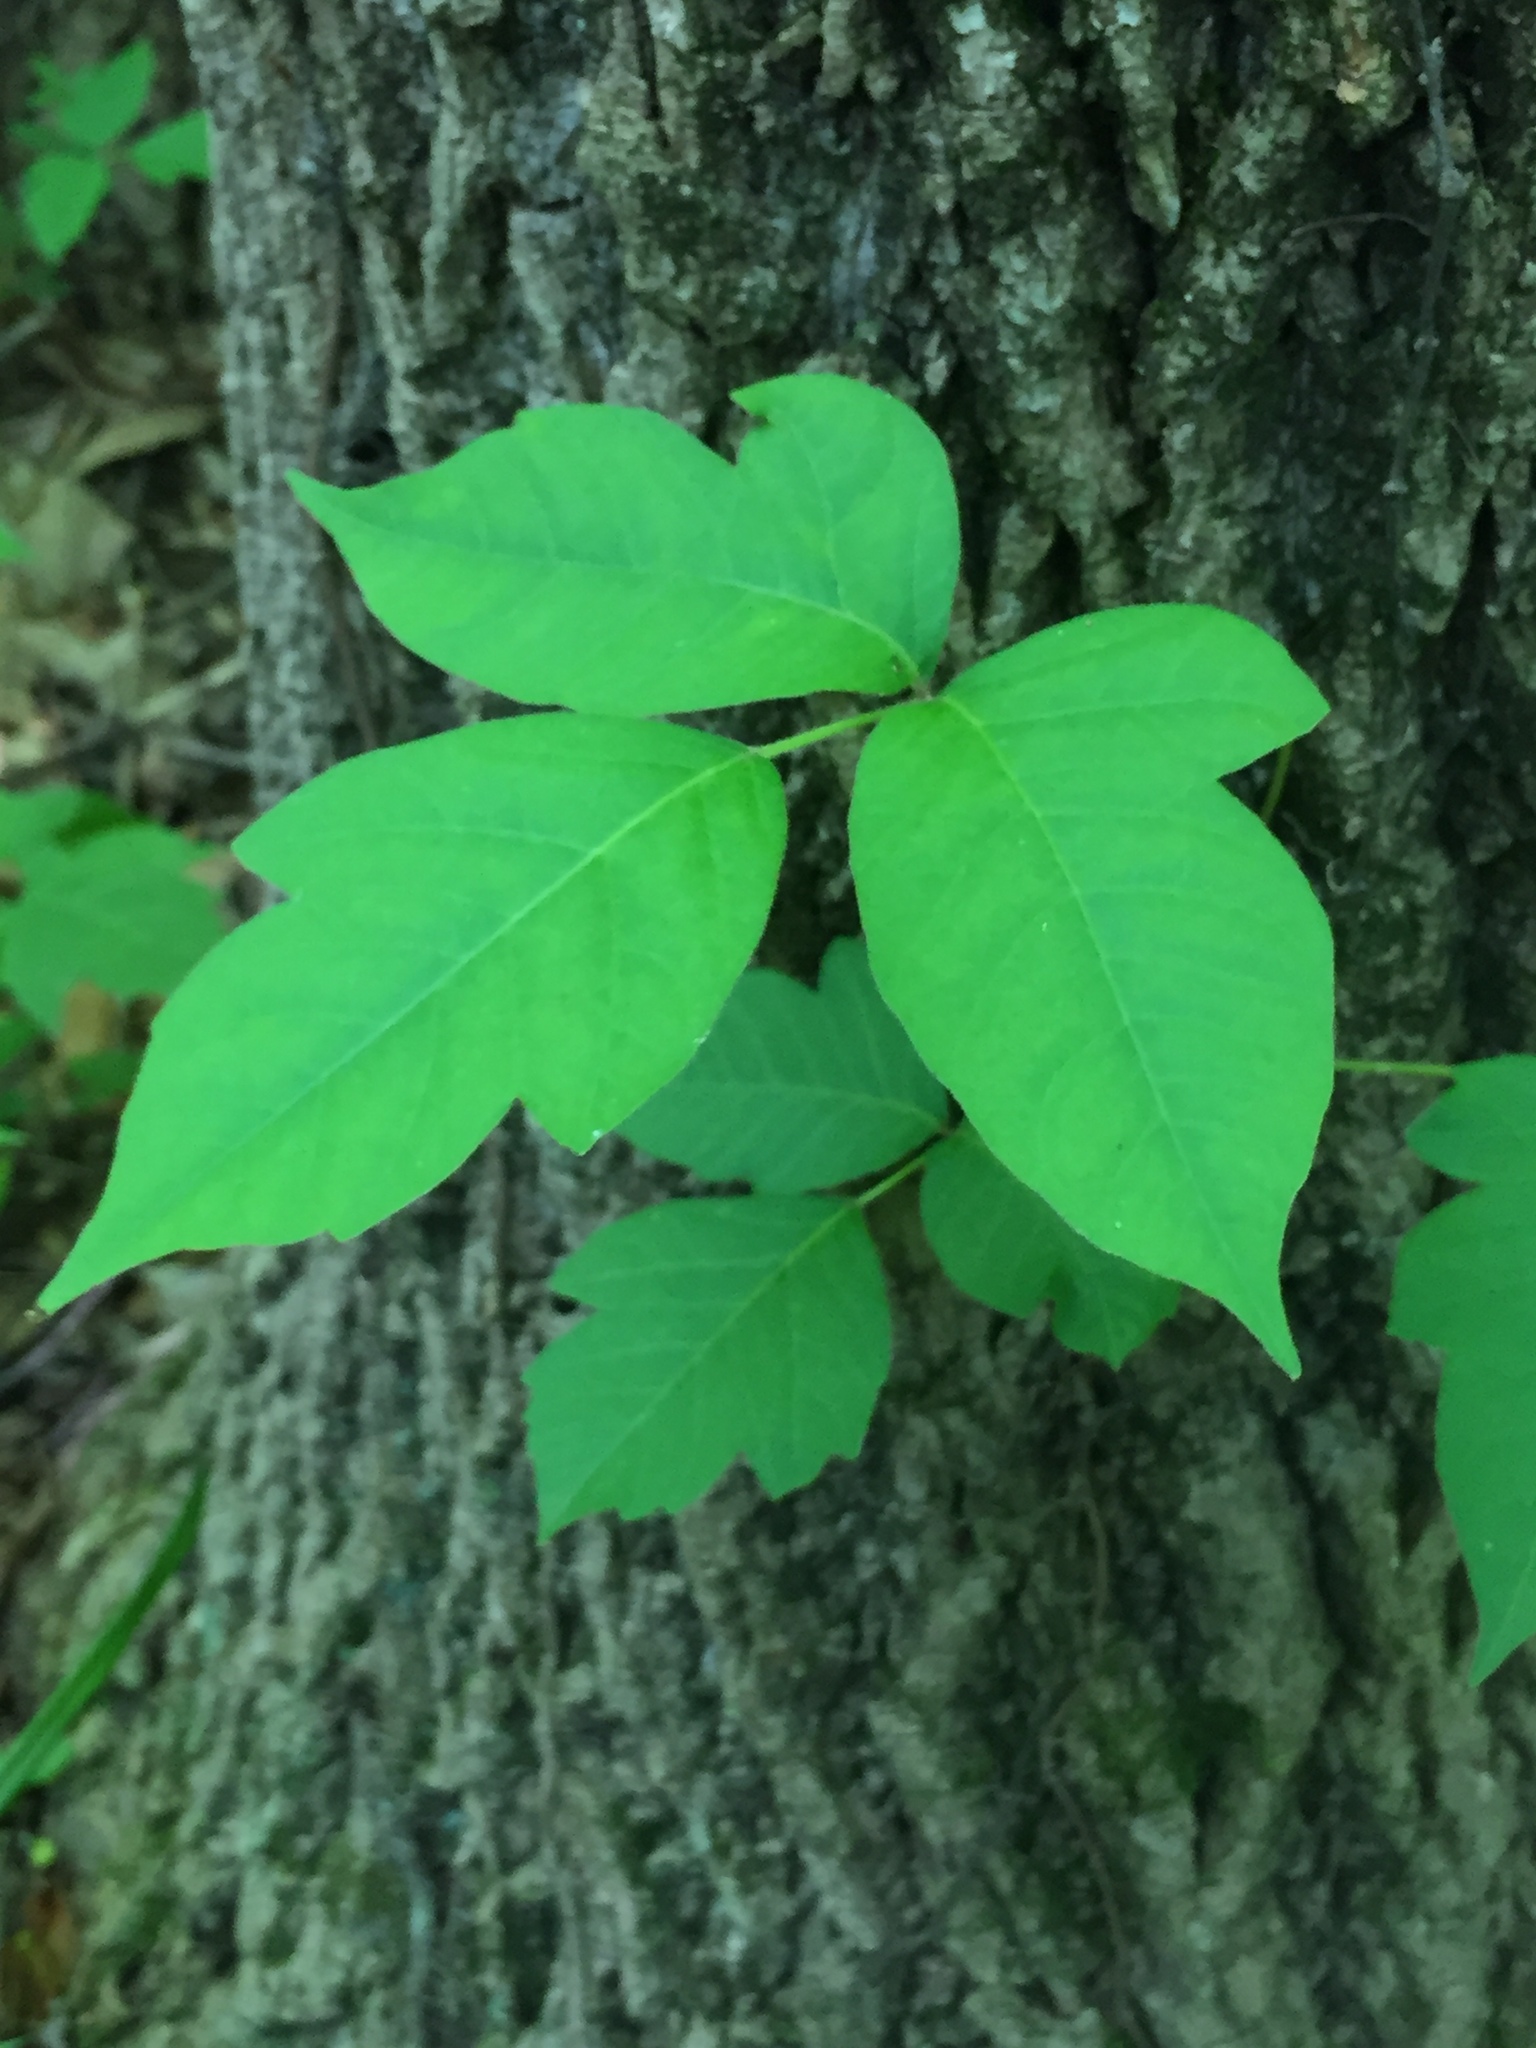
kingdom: Plantae
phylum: Tracheophyta
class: Magnoliopsida
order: Sapindales
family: Anacardiaceae
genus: Toxicodendron
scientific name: Toxicodendron radicans
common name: Poison ivy
